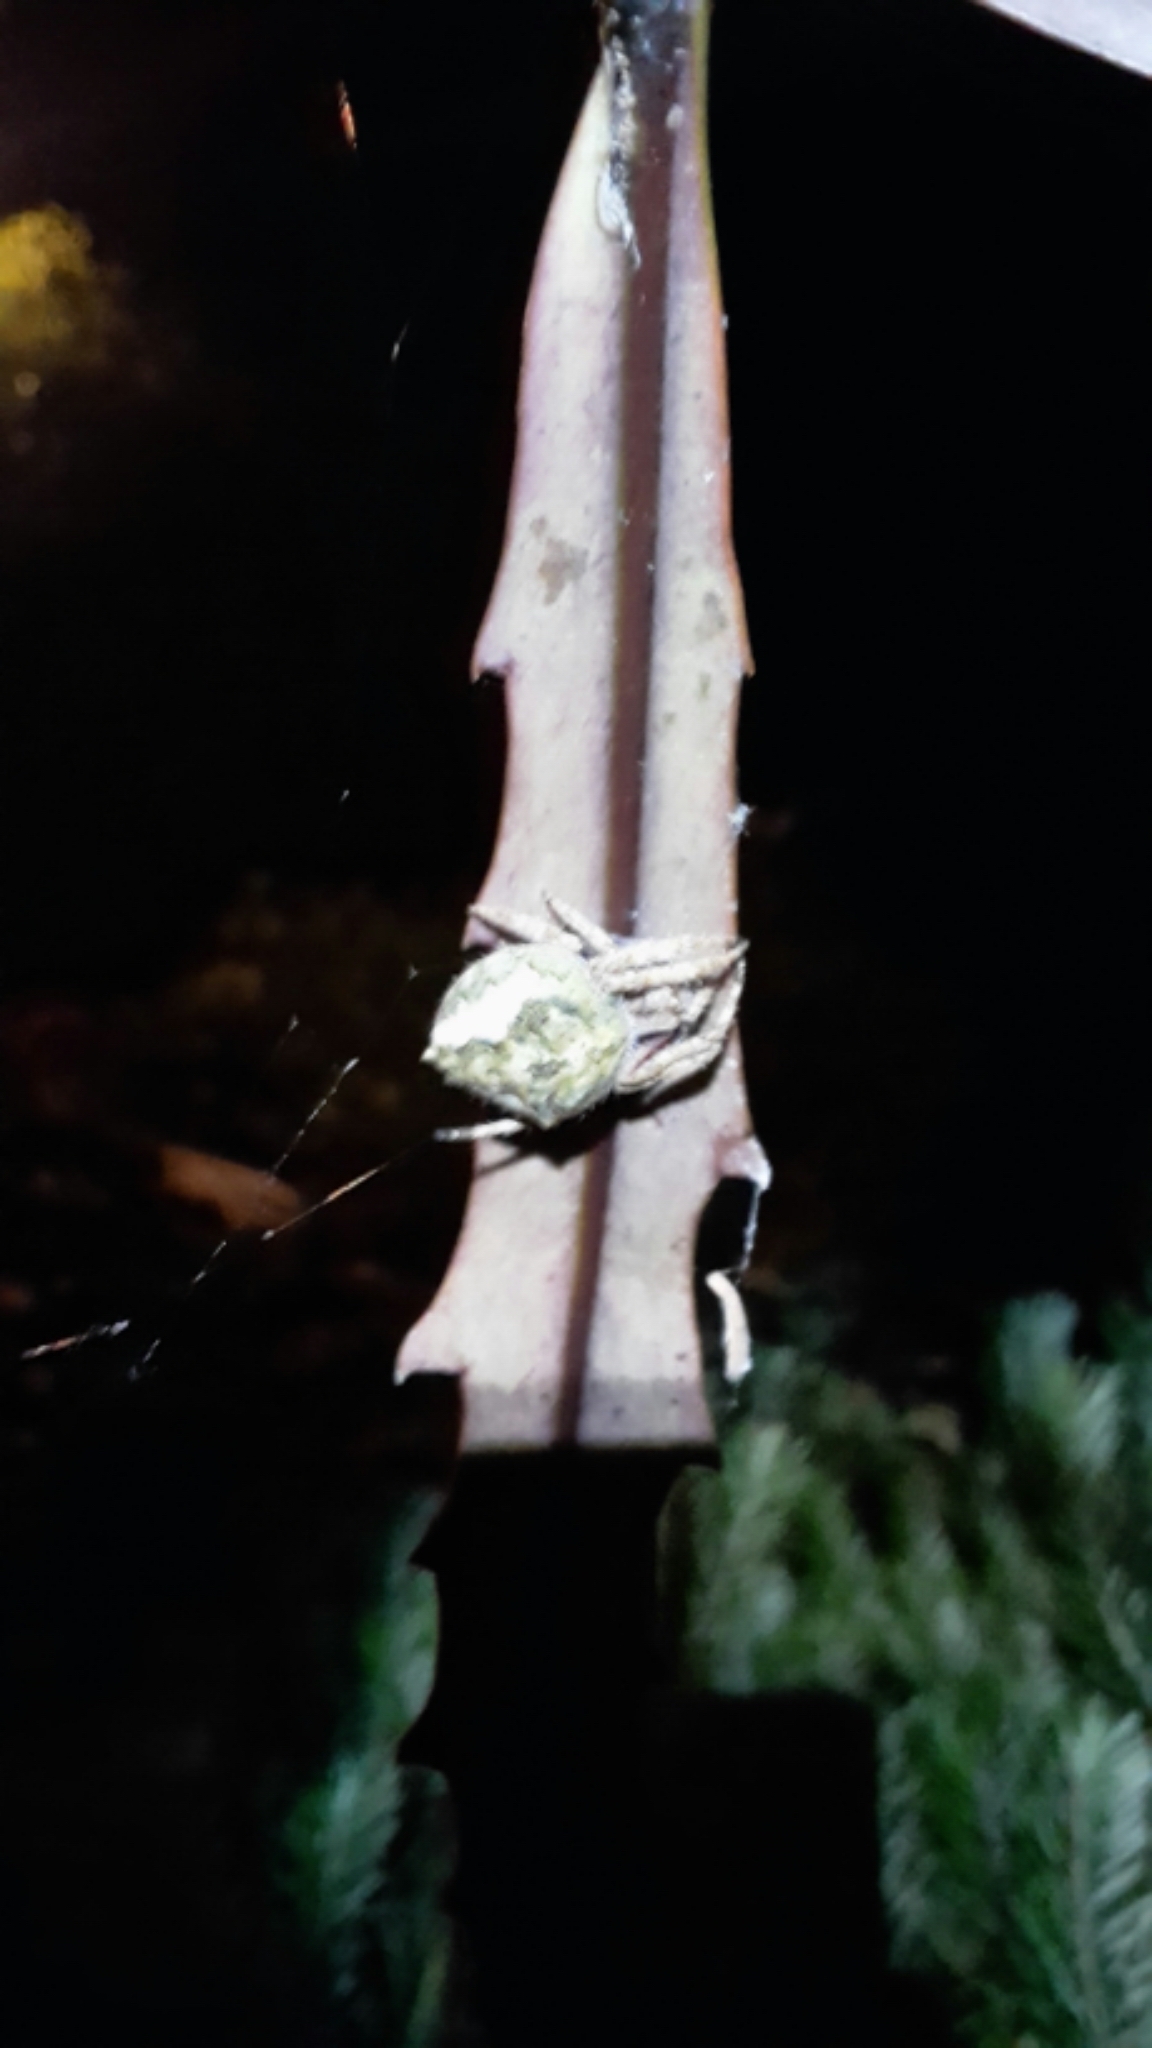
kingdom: Animalia
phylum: Arthropoda
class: Arachnida
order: Araneae
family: Araneidae
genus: Eriophora
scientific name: Eriophora pustulosa
